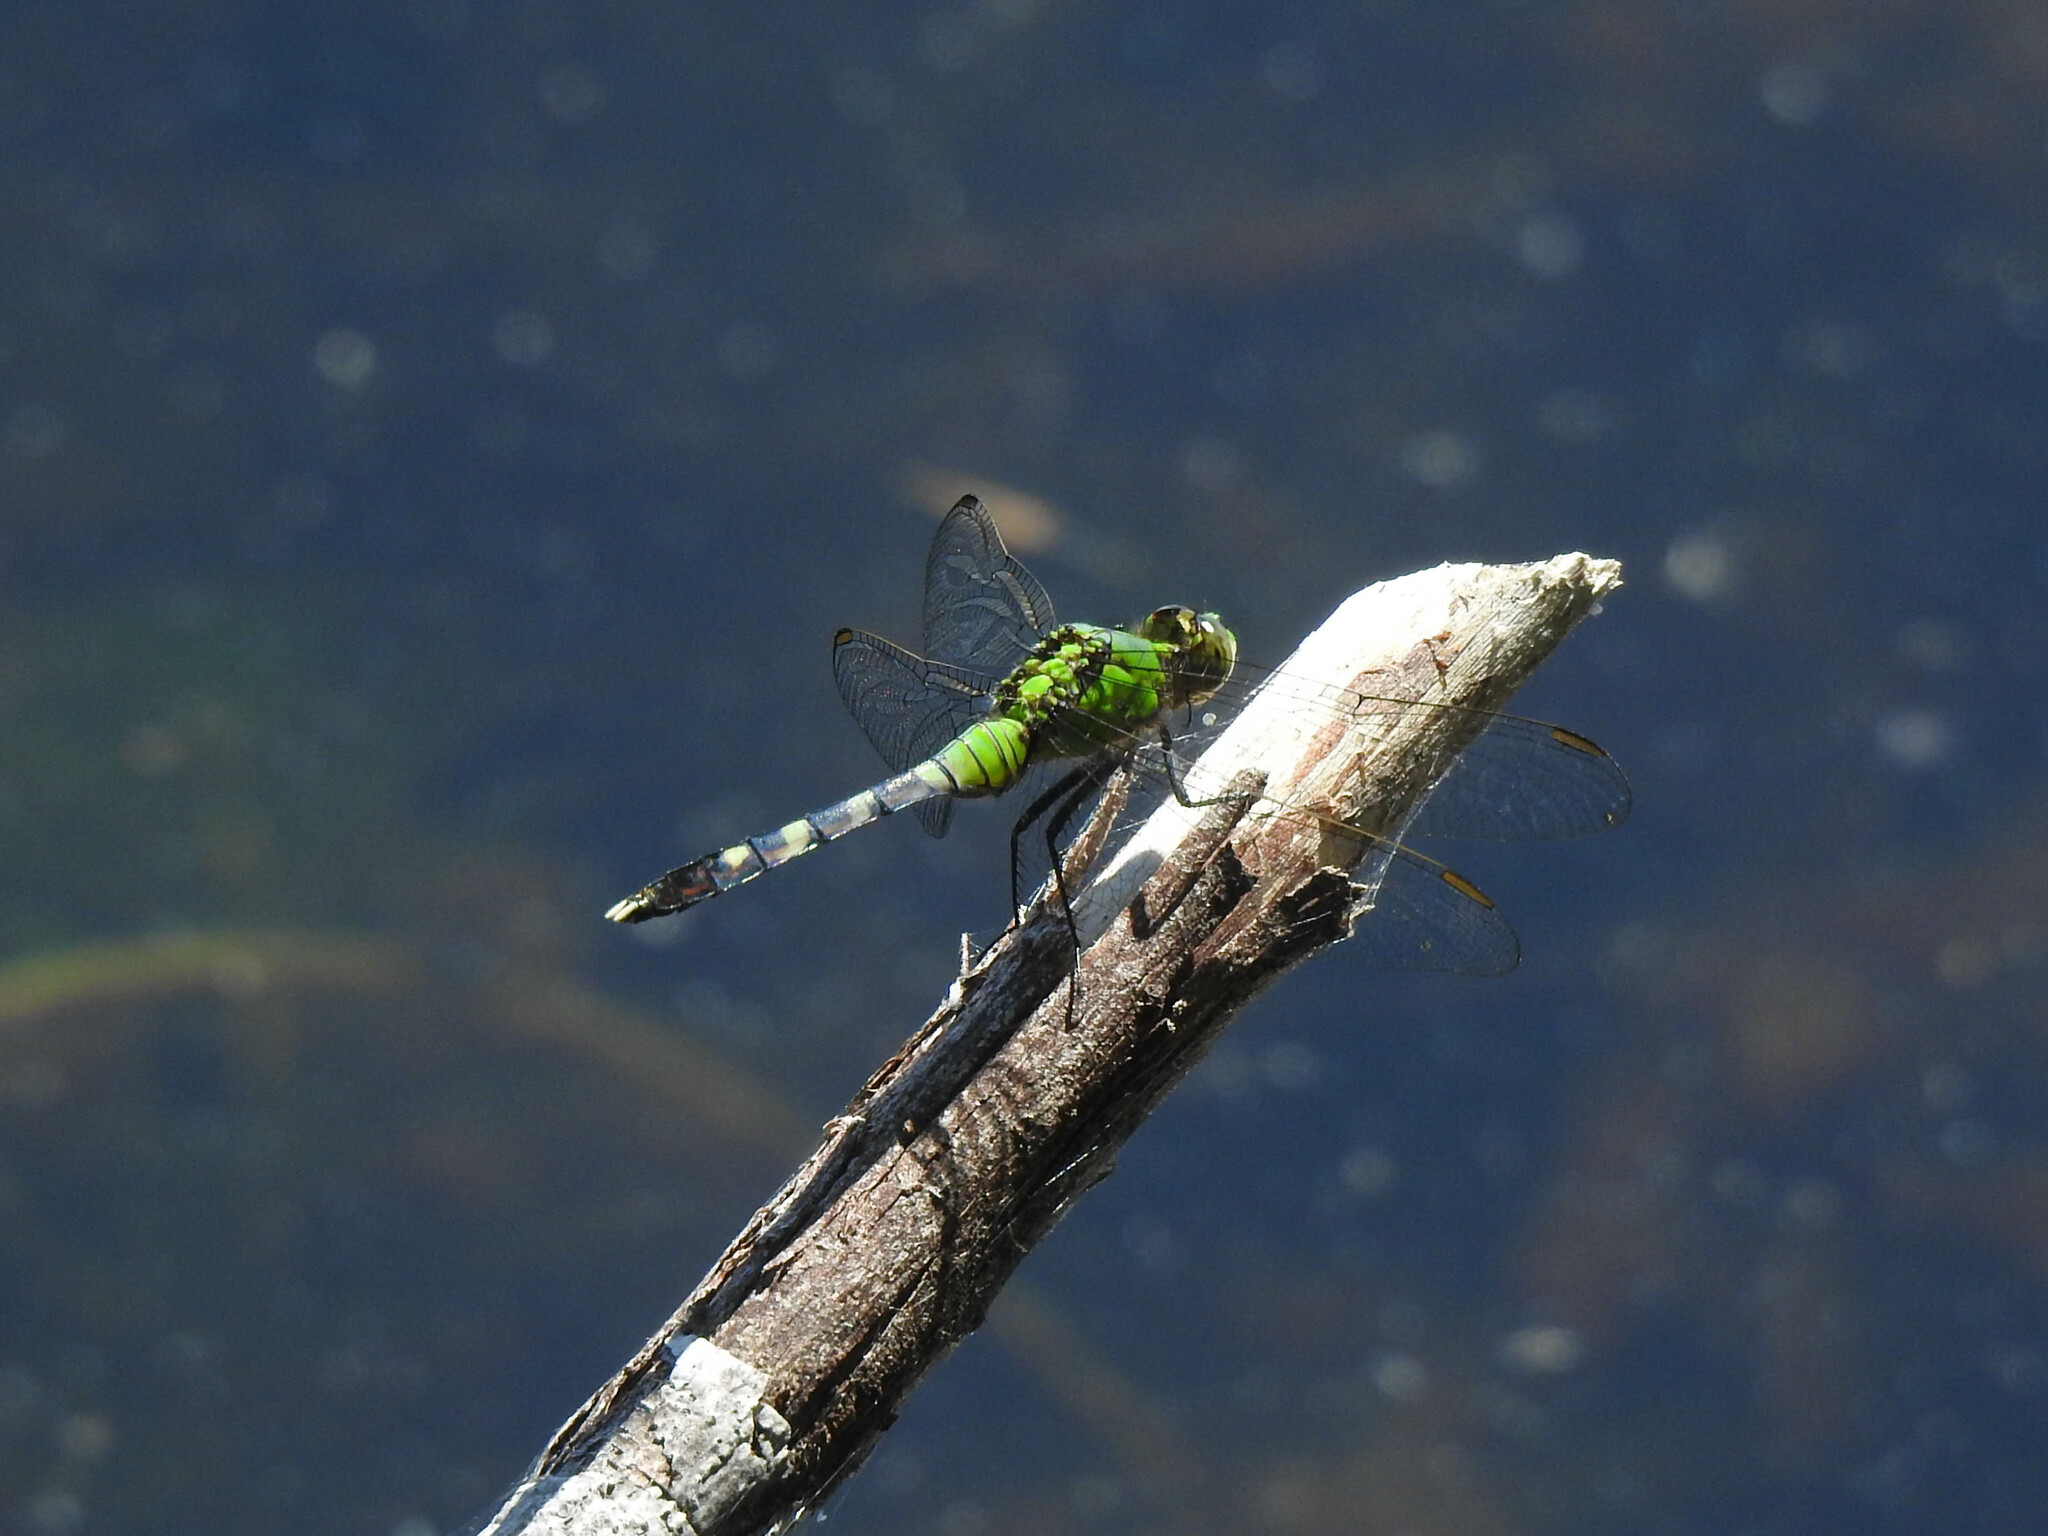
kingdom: Animalia
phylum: Arthropoda
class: Insecta
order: Odonata
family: Libellulidae
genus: Erythemis
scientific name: Erythemis simplicicollis
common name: Eastern pondhawk
